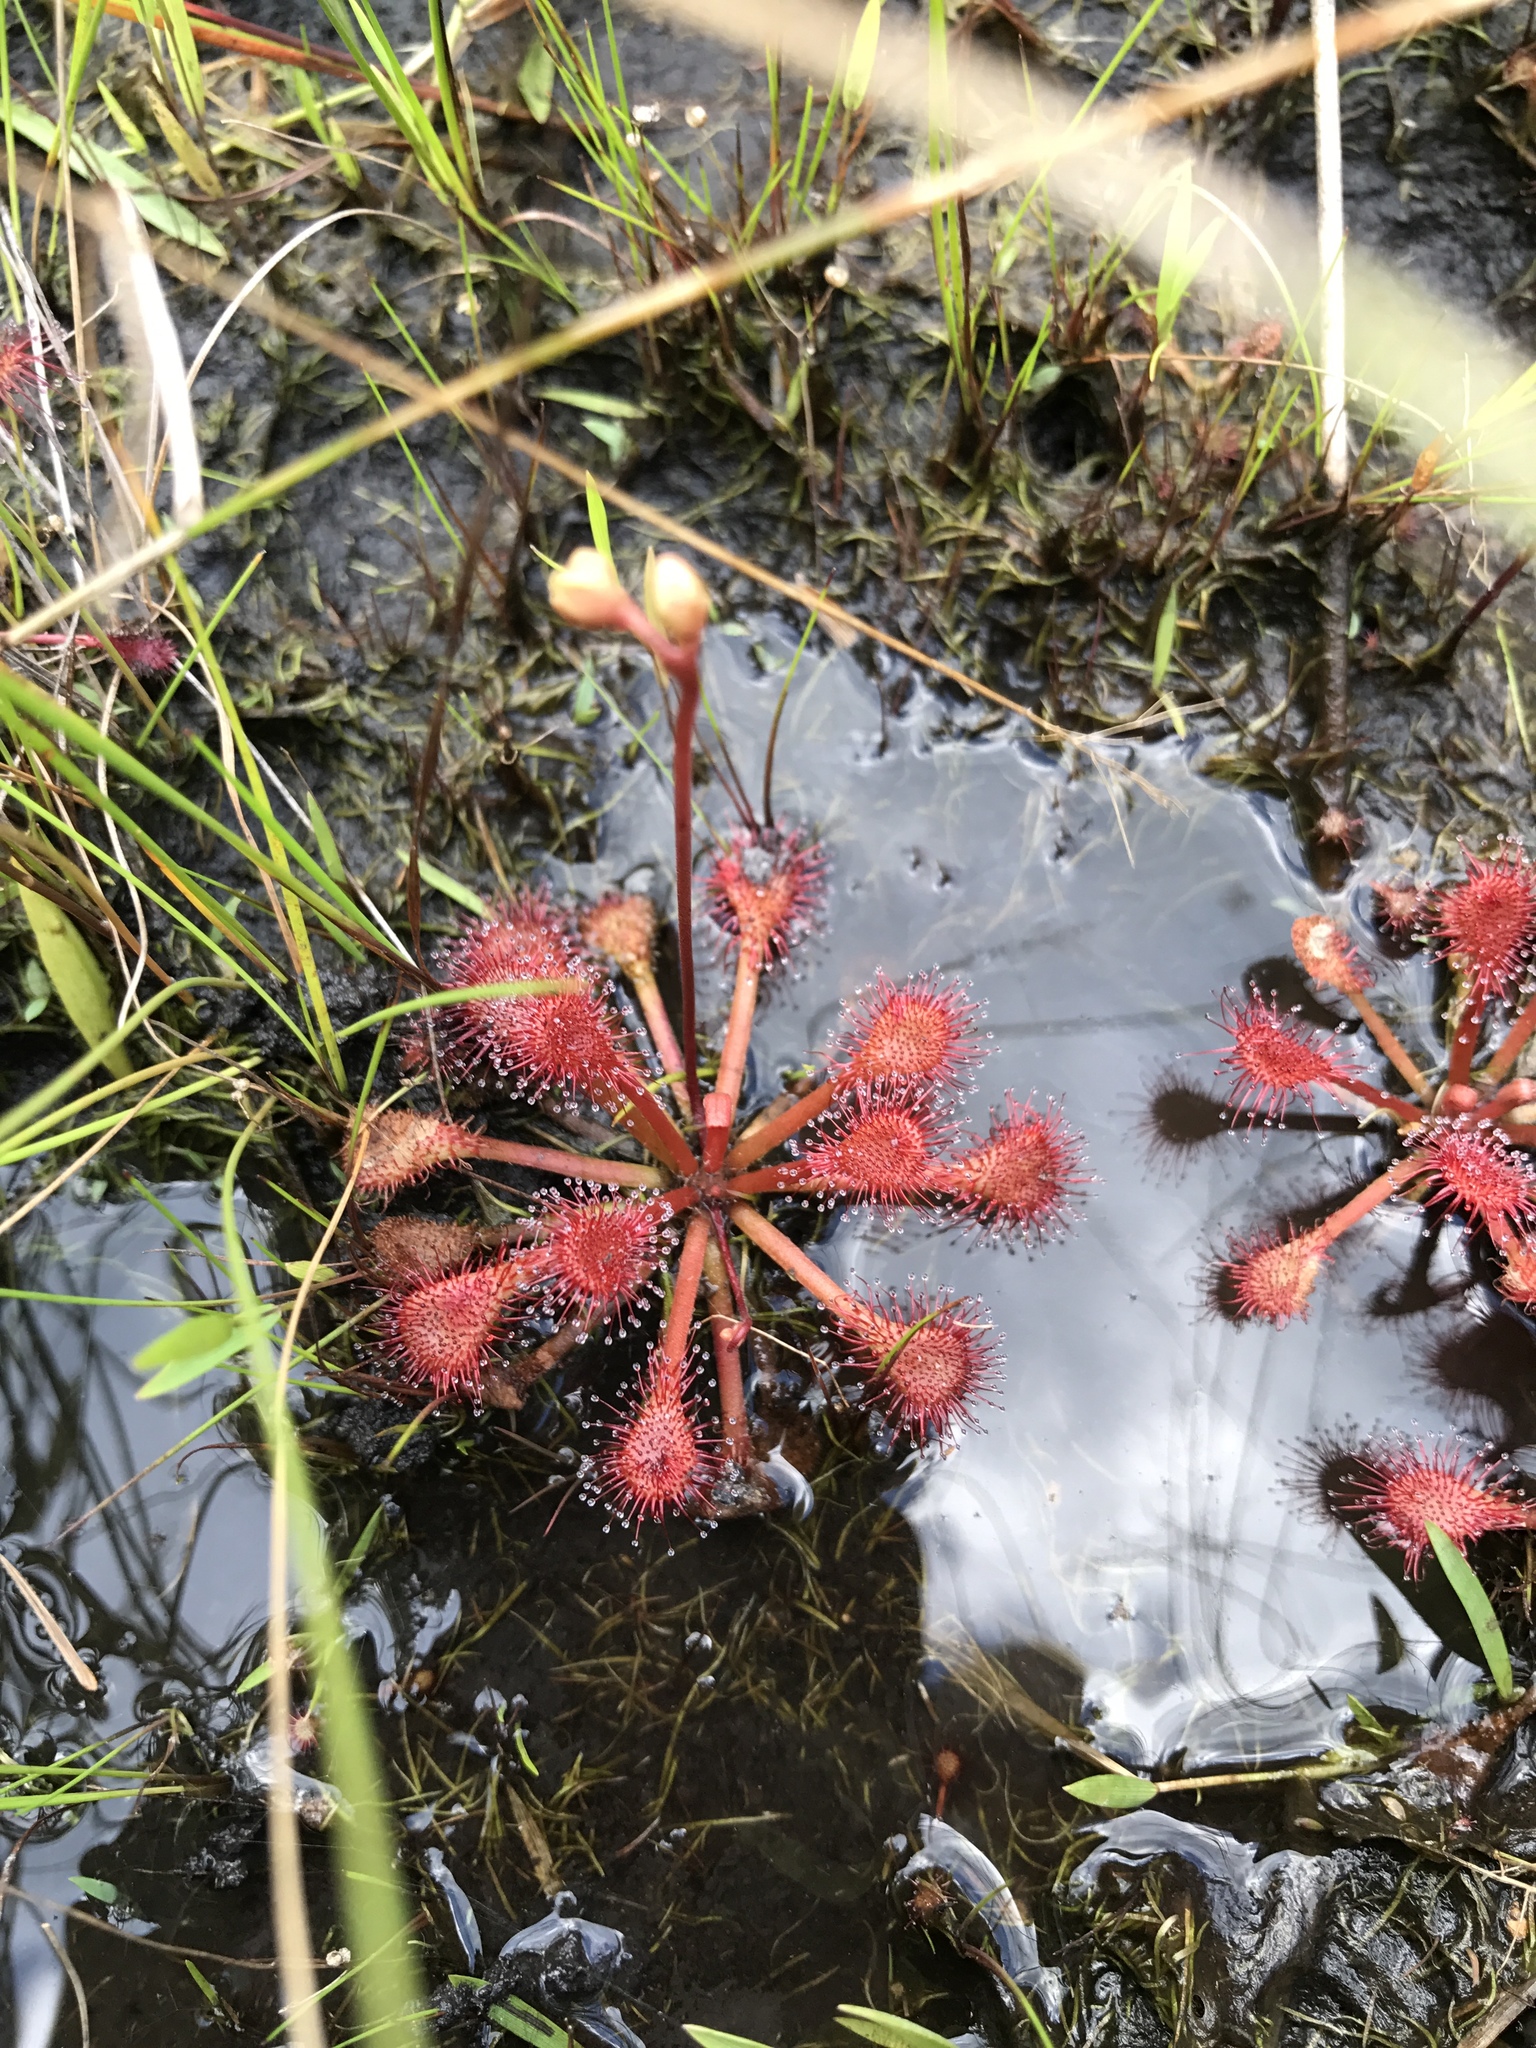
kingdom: Plantae
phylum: Tracheophyta
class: Magnoliopsida
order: Caryophyllales
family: Droseraceae
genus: Drosera
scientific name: Drosera capillaris
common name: Pink sundew
